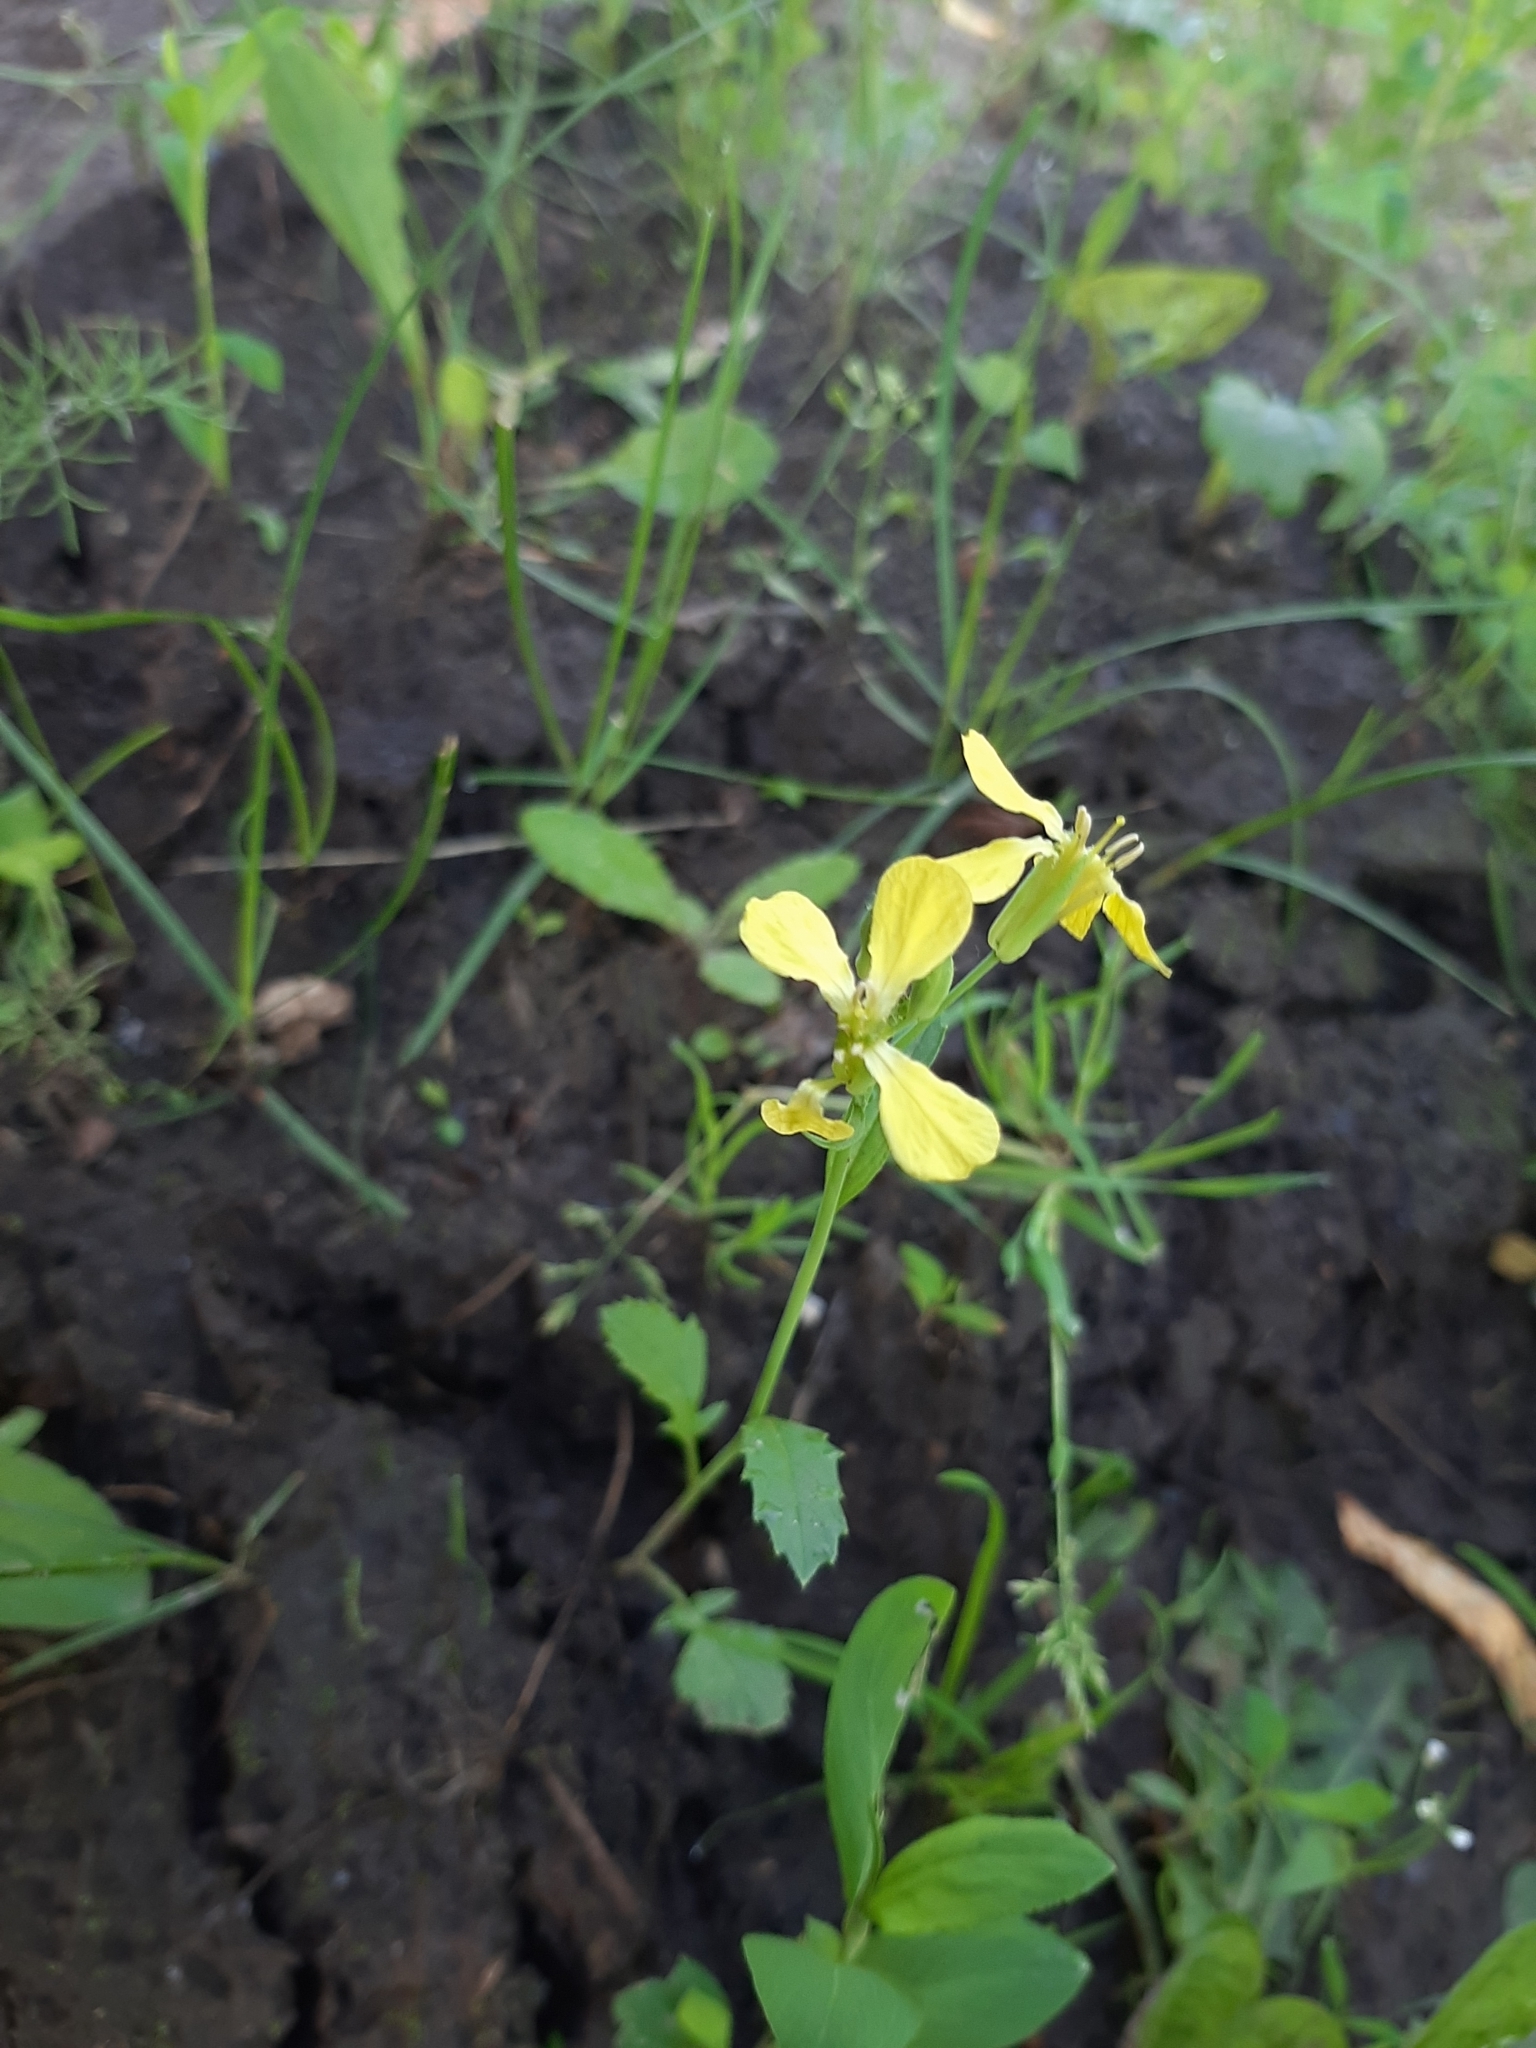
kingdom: Plantae
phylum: Tracheophyta
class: Magnoliopsida
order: Brassicales
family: Brassicaceae
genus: Raphanus
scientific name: Raphanus raphanistrum
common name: Wild radish
